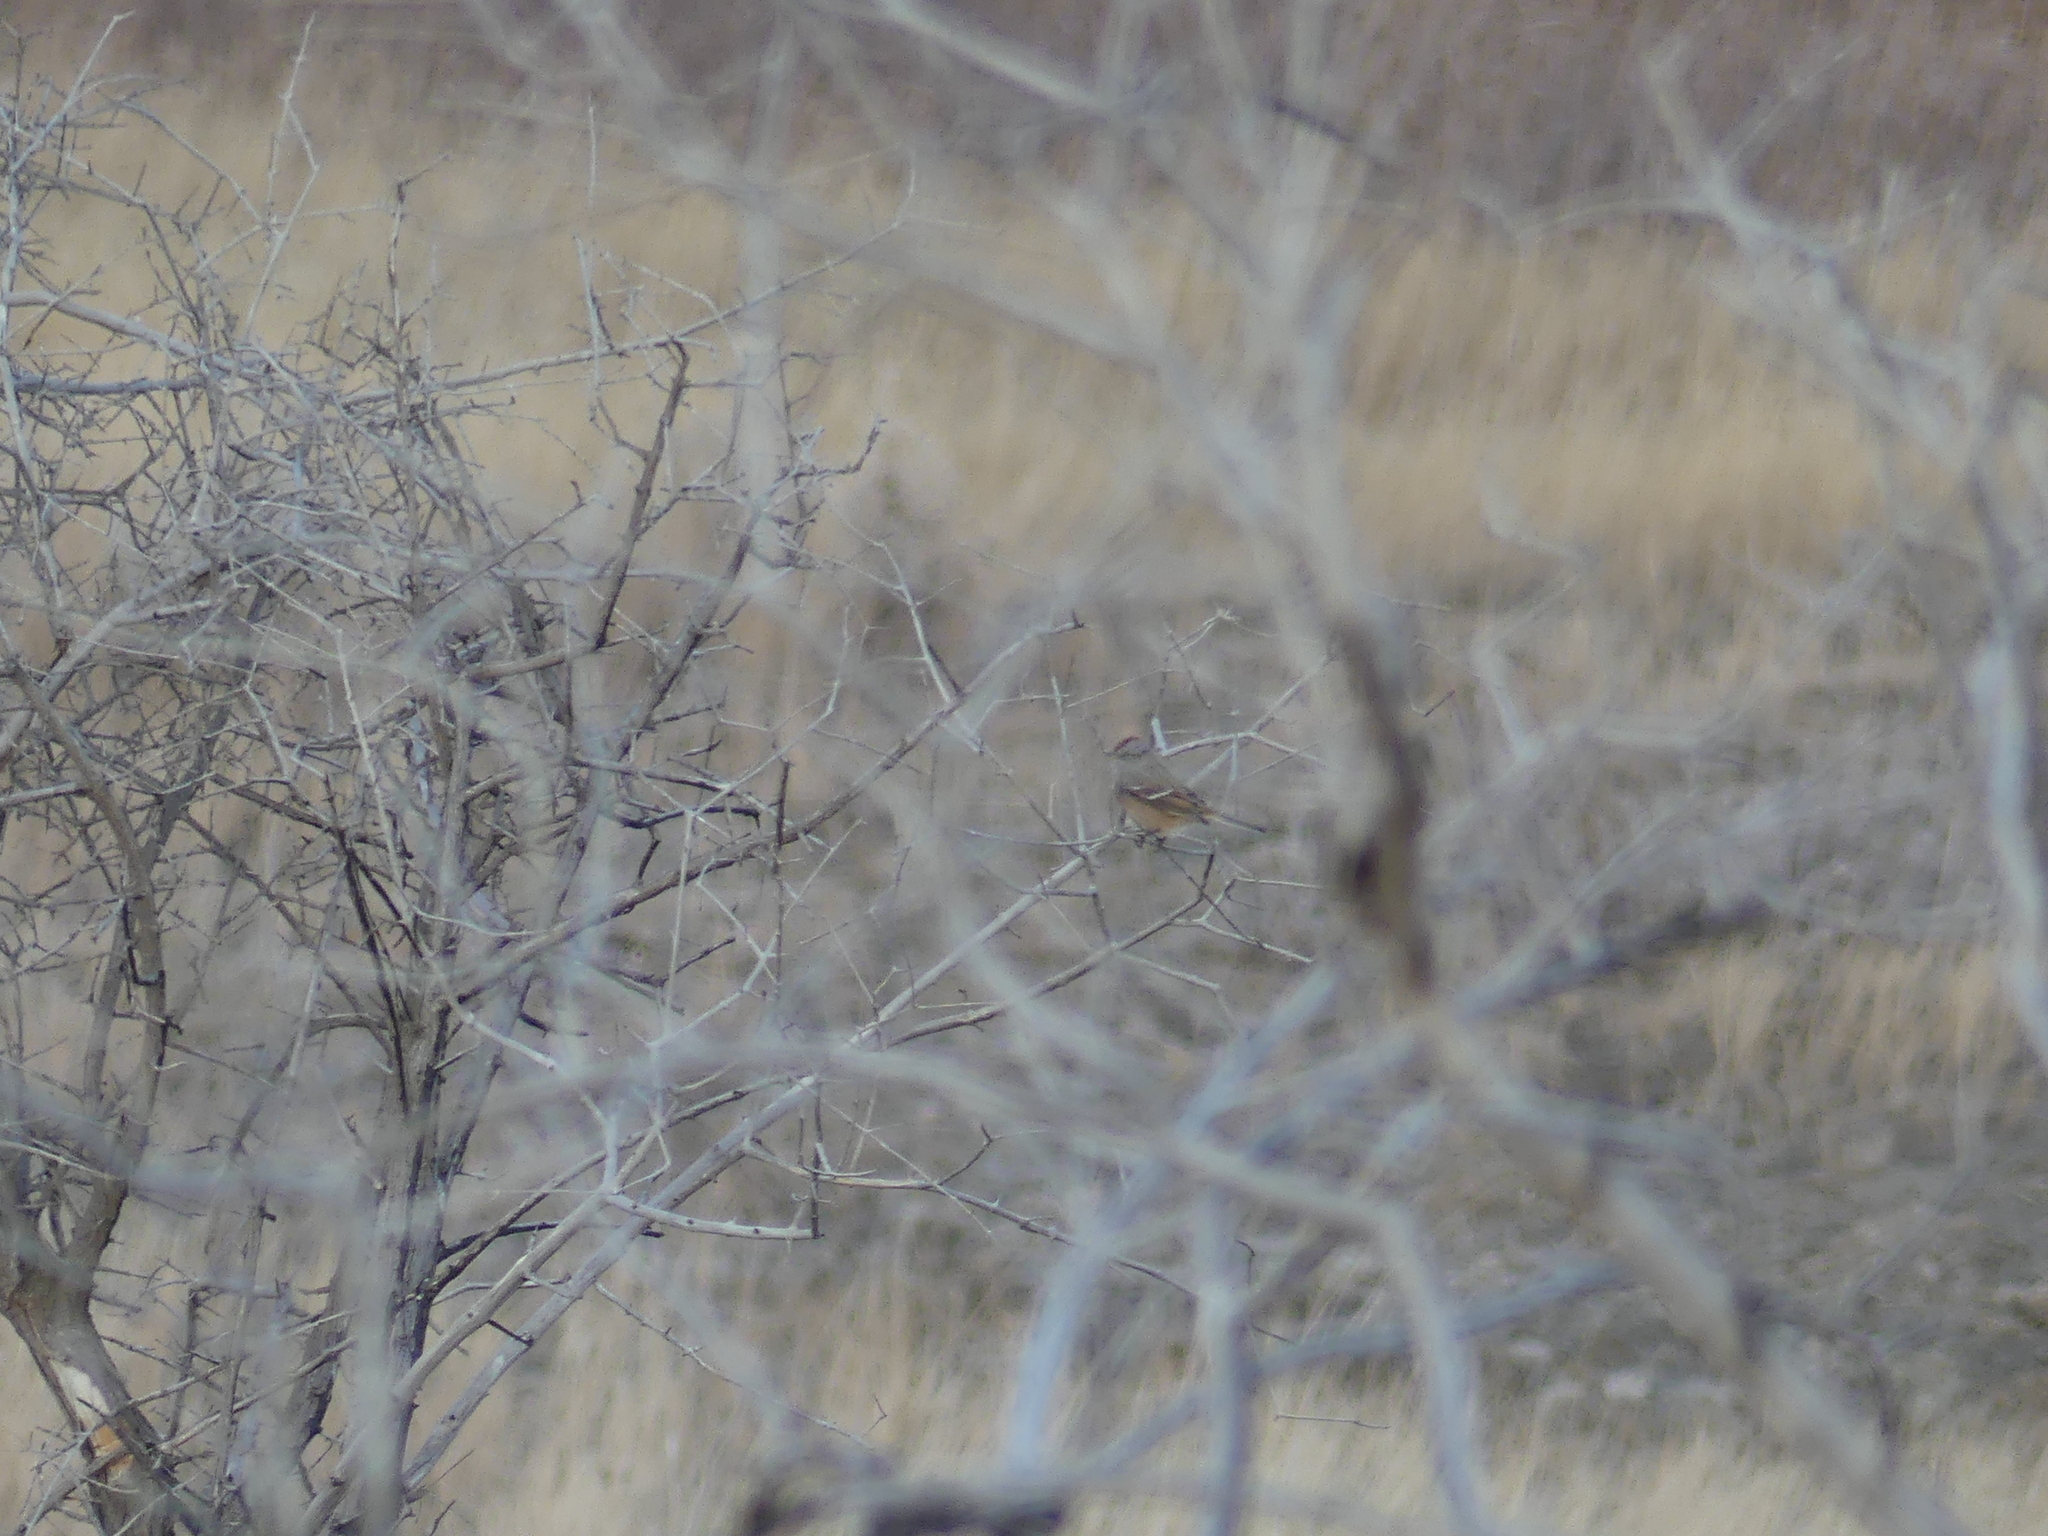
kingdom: Animalia
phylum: Chordata
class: Aves
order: Passeriformes
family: Passerellidae
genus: Spizelloides
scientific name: Spizelloides arborea
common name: American tree sparrow
